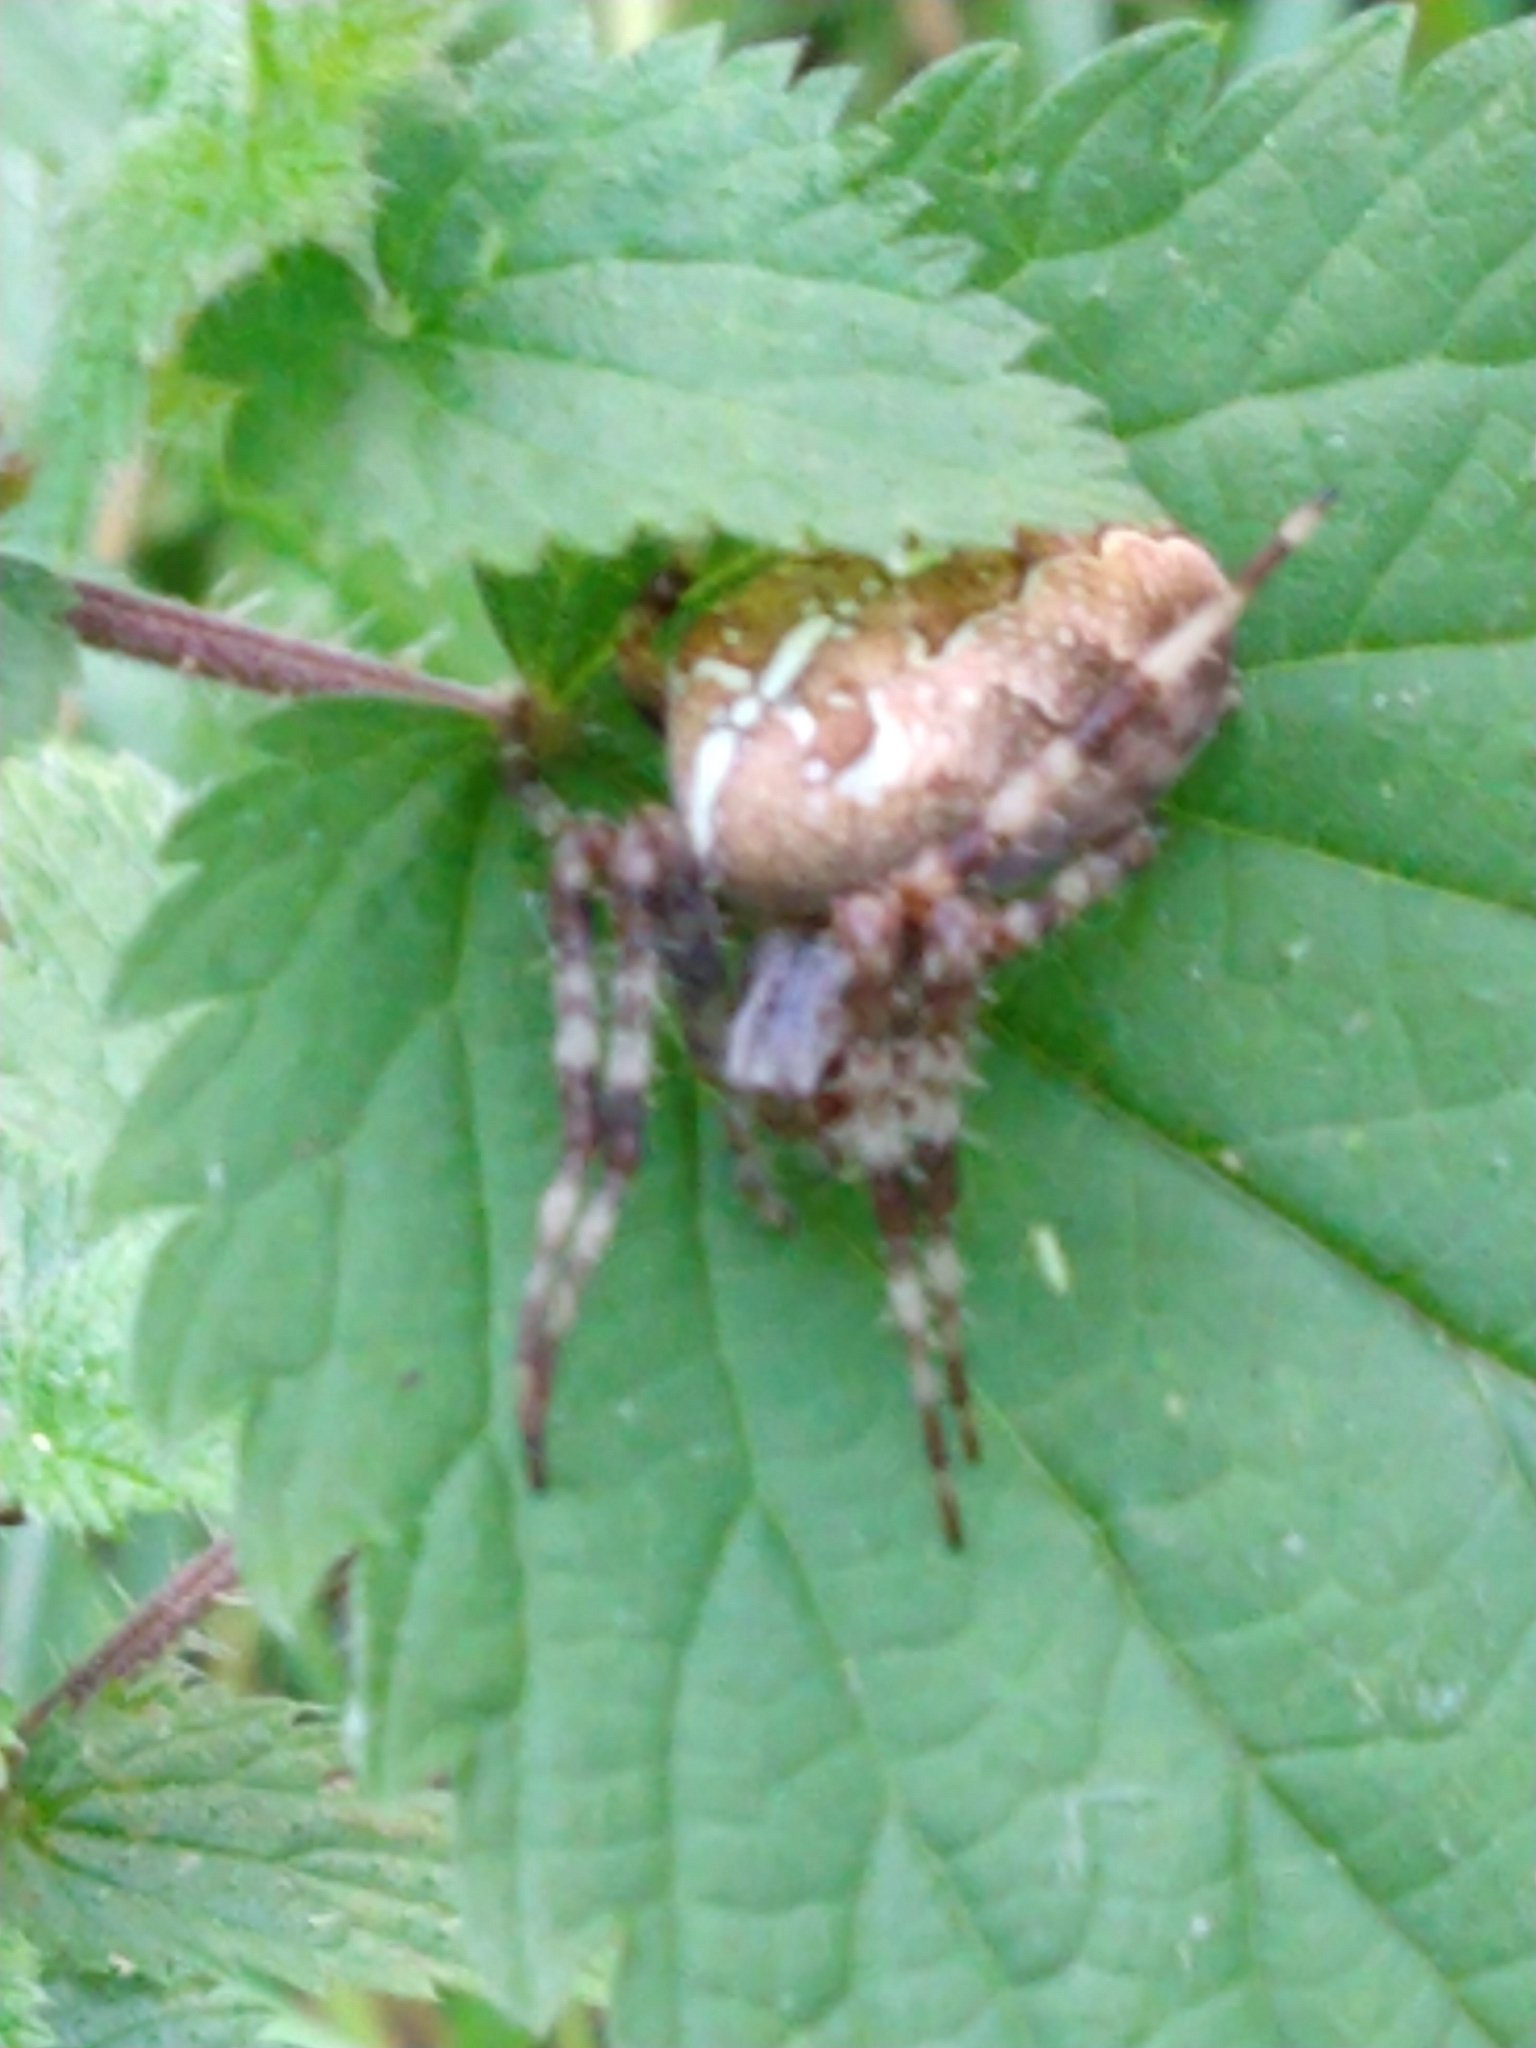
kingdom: Animalia
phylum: Arthropoda
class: Arachnida
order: Araneae
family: Araneidae
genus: Araneus
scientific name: Araneus diadematus
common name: Cross orbweaver
